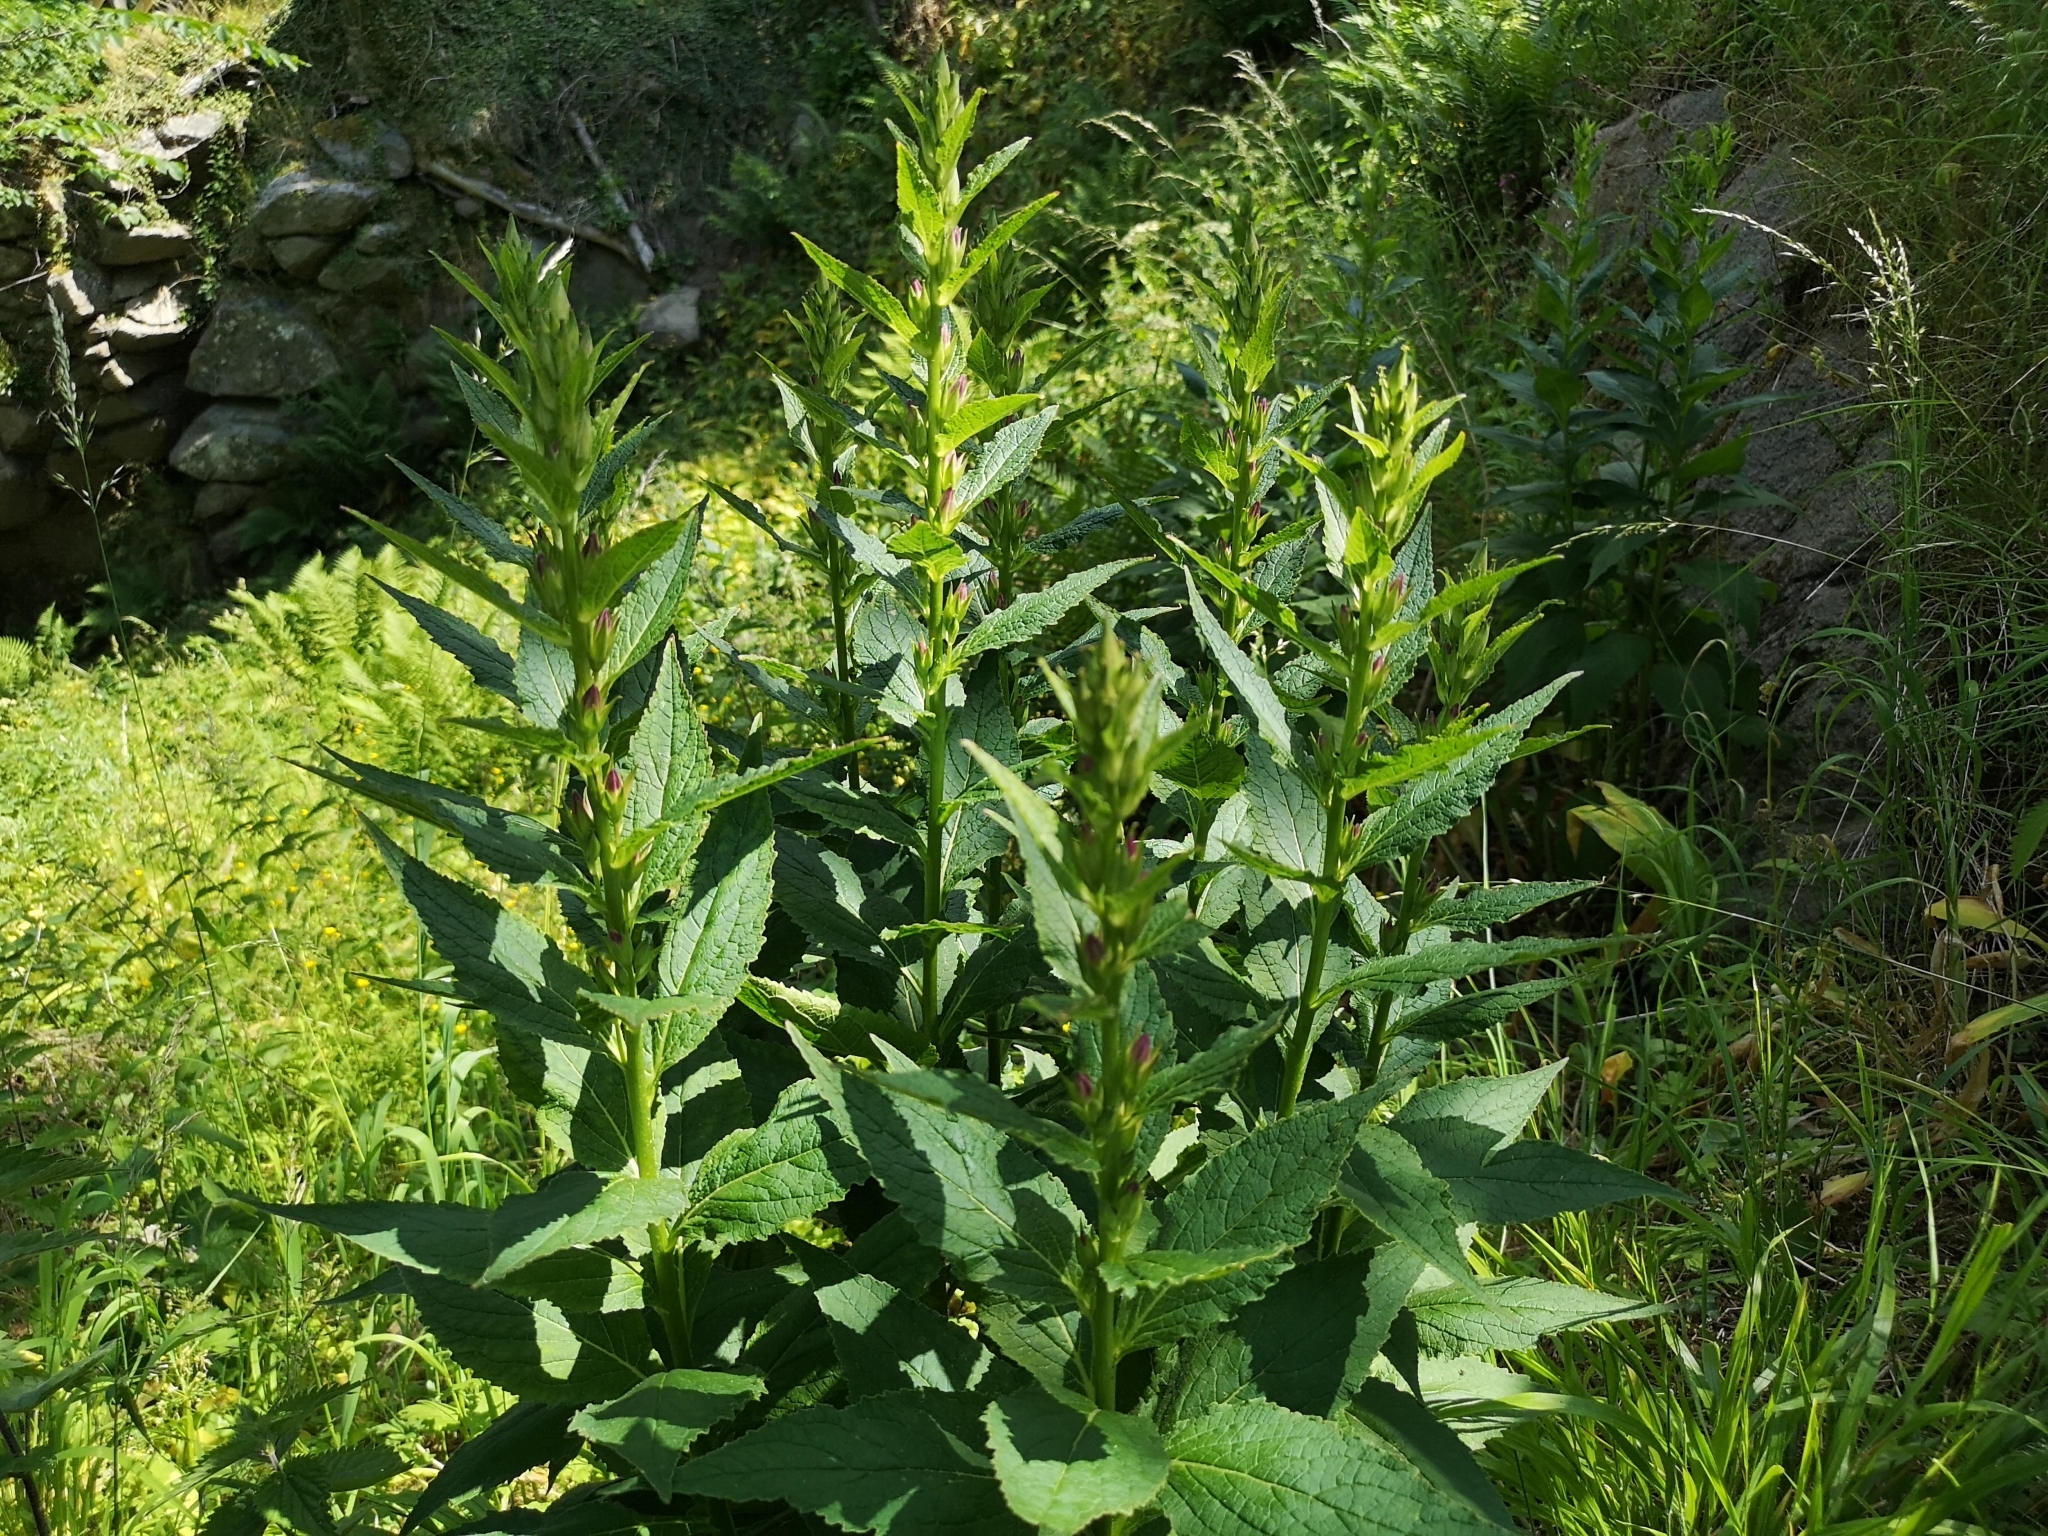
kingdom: Plantae
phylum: Tracheophyta
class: Magnoliopsida
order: Asterales
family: Campanulaceae
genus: Campanula
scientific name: Campanula latifolia
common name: Giant bellflower
